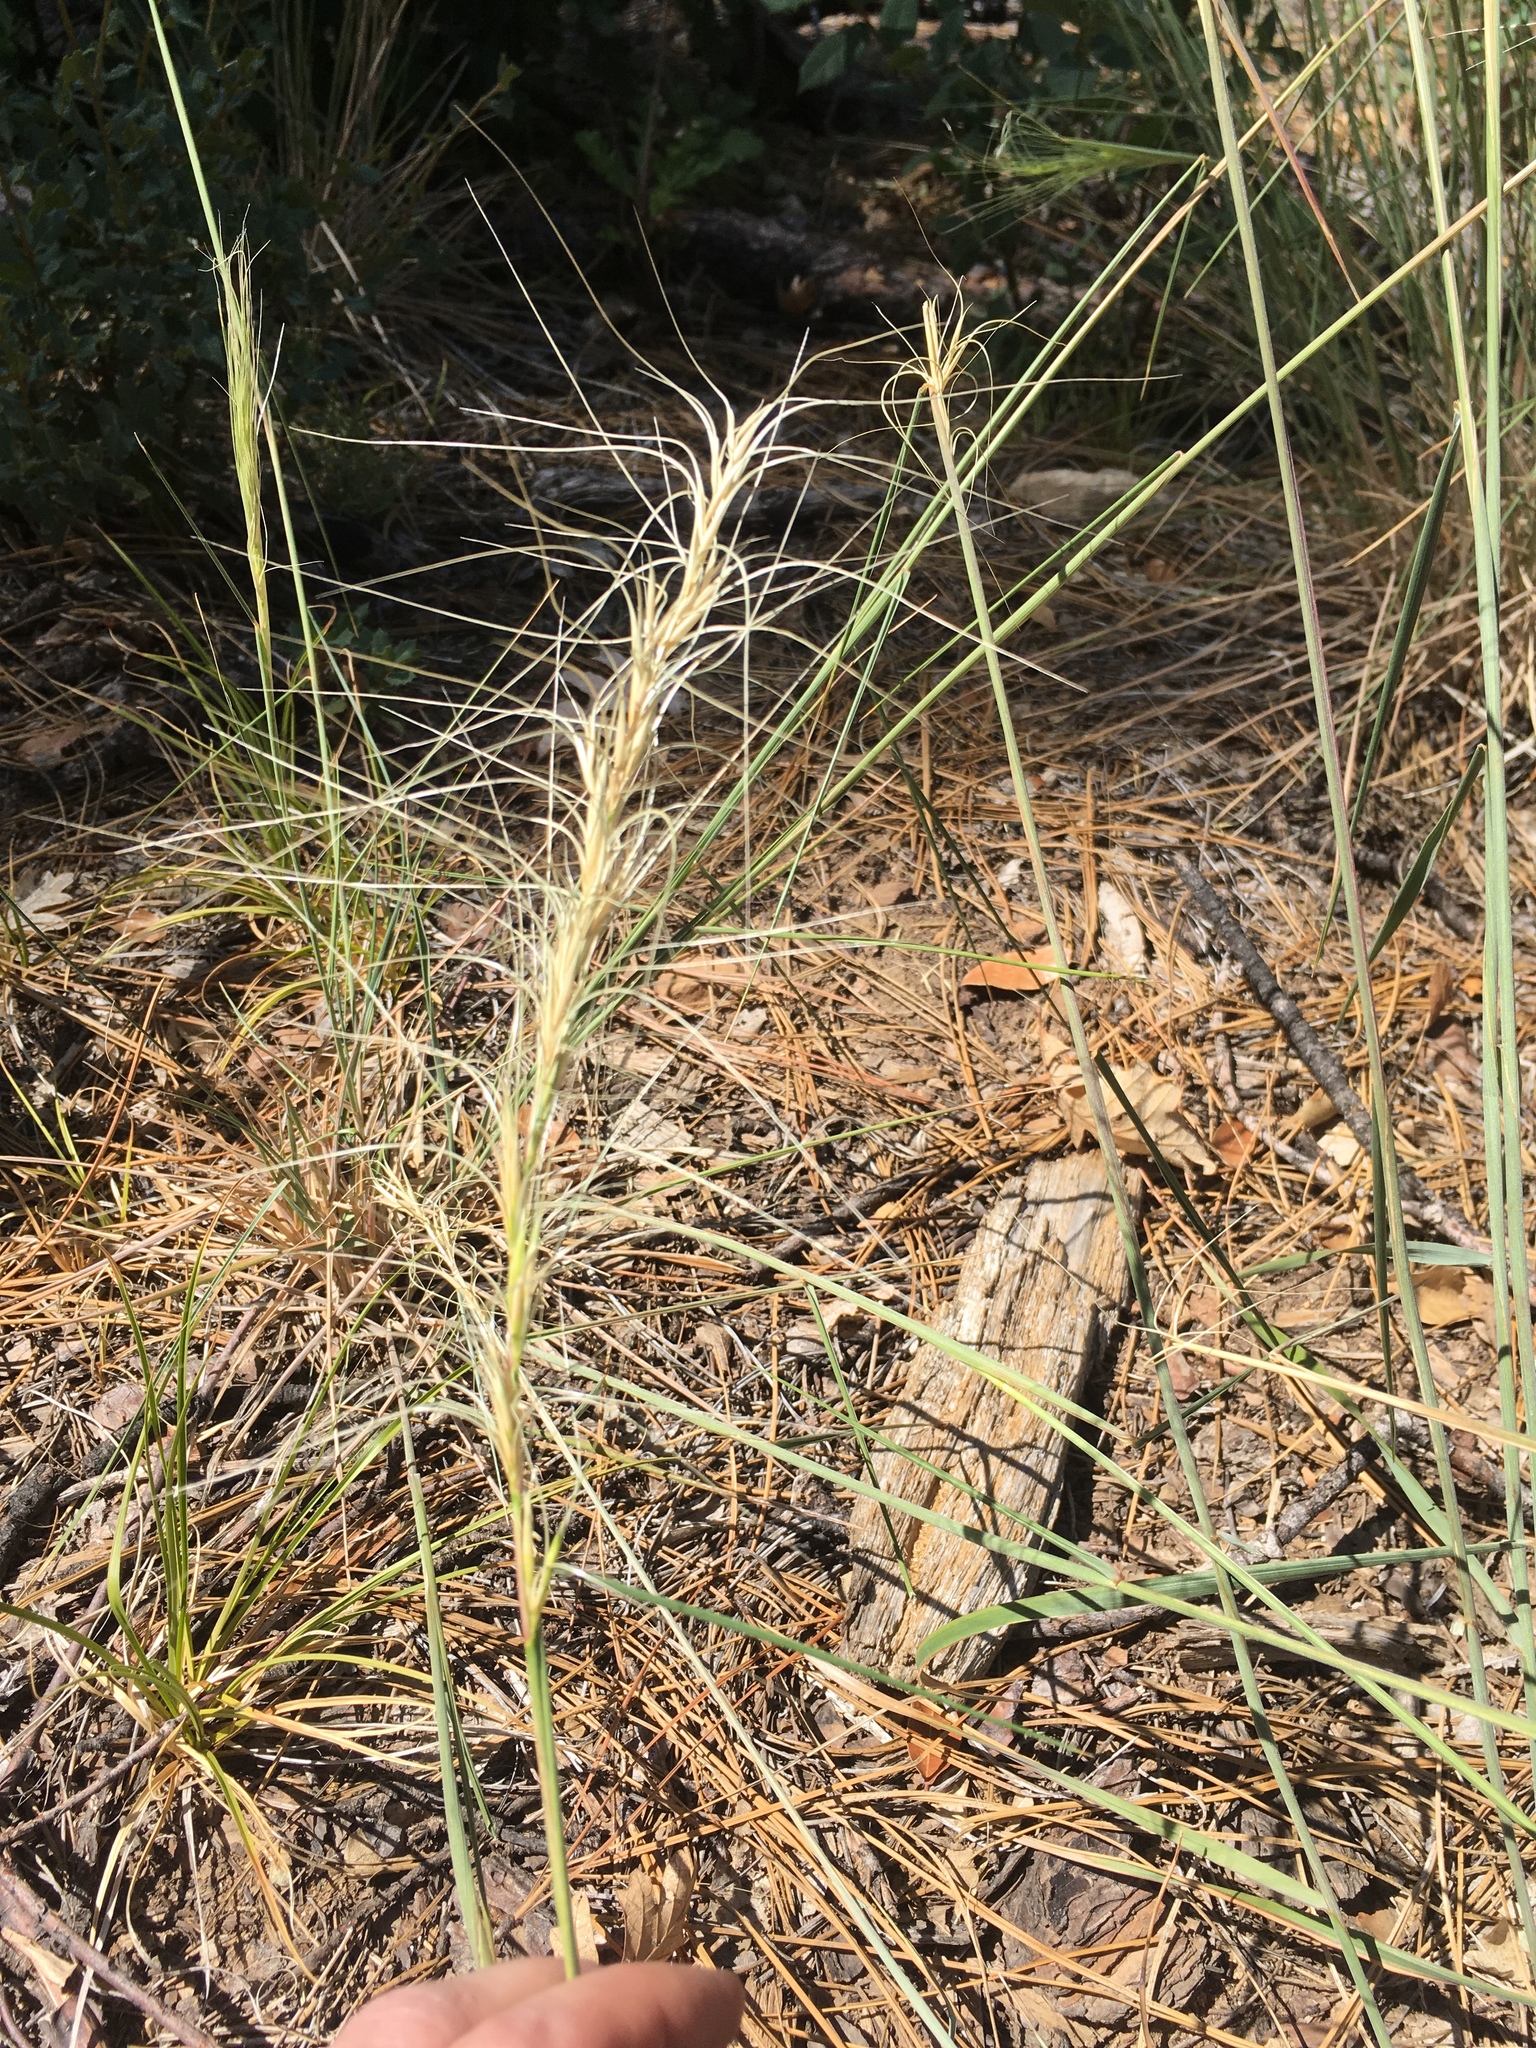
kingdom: Plantae
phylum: Tracheophyta
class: Liliopsida
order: Poales
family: Poaceae
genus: Elymus
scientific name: Elymus elymoides
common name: Bottlebrush squirreltail
